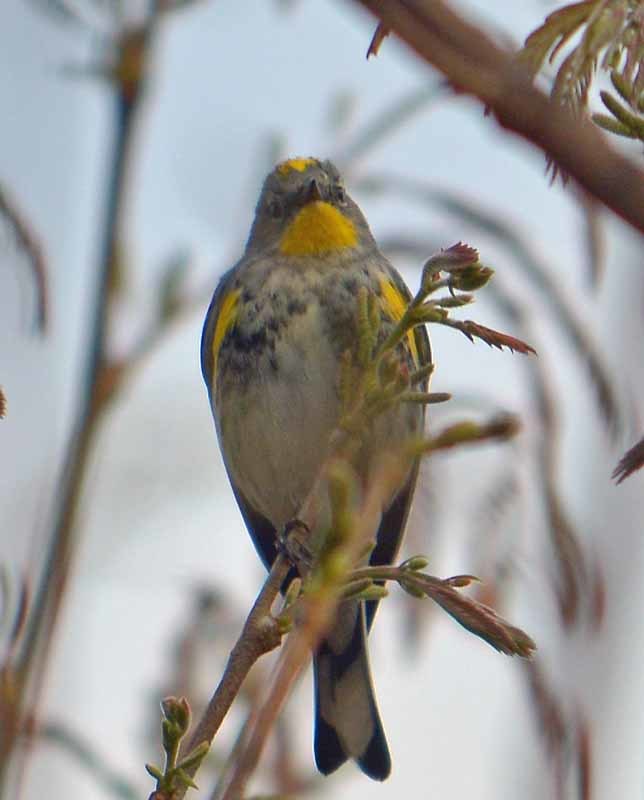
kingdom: Animalia
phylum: Chordata
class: Aves
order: Passeriformes
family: Parulidae
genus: Setophaga
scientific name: Setophaga coronata
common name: Myrtle warbler
